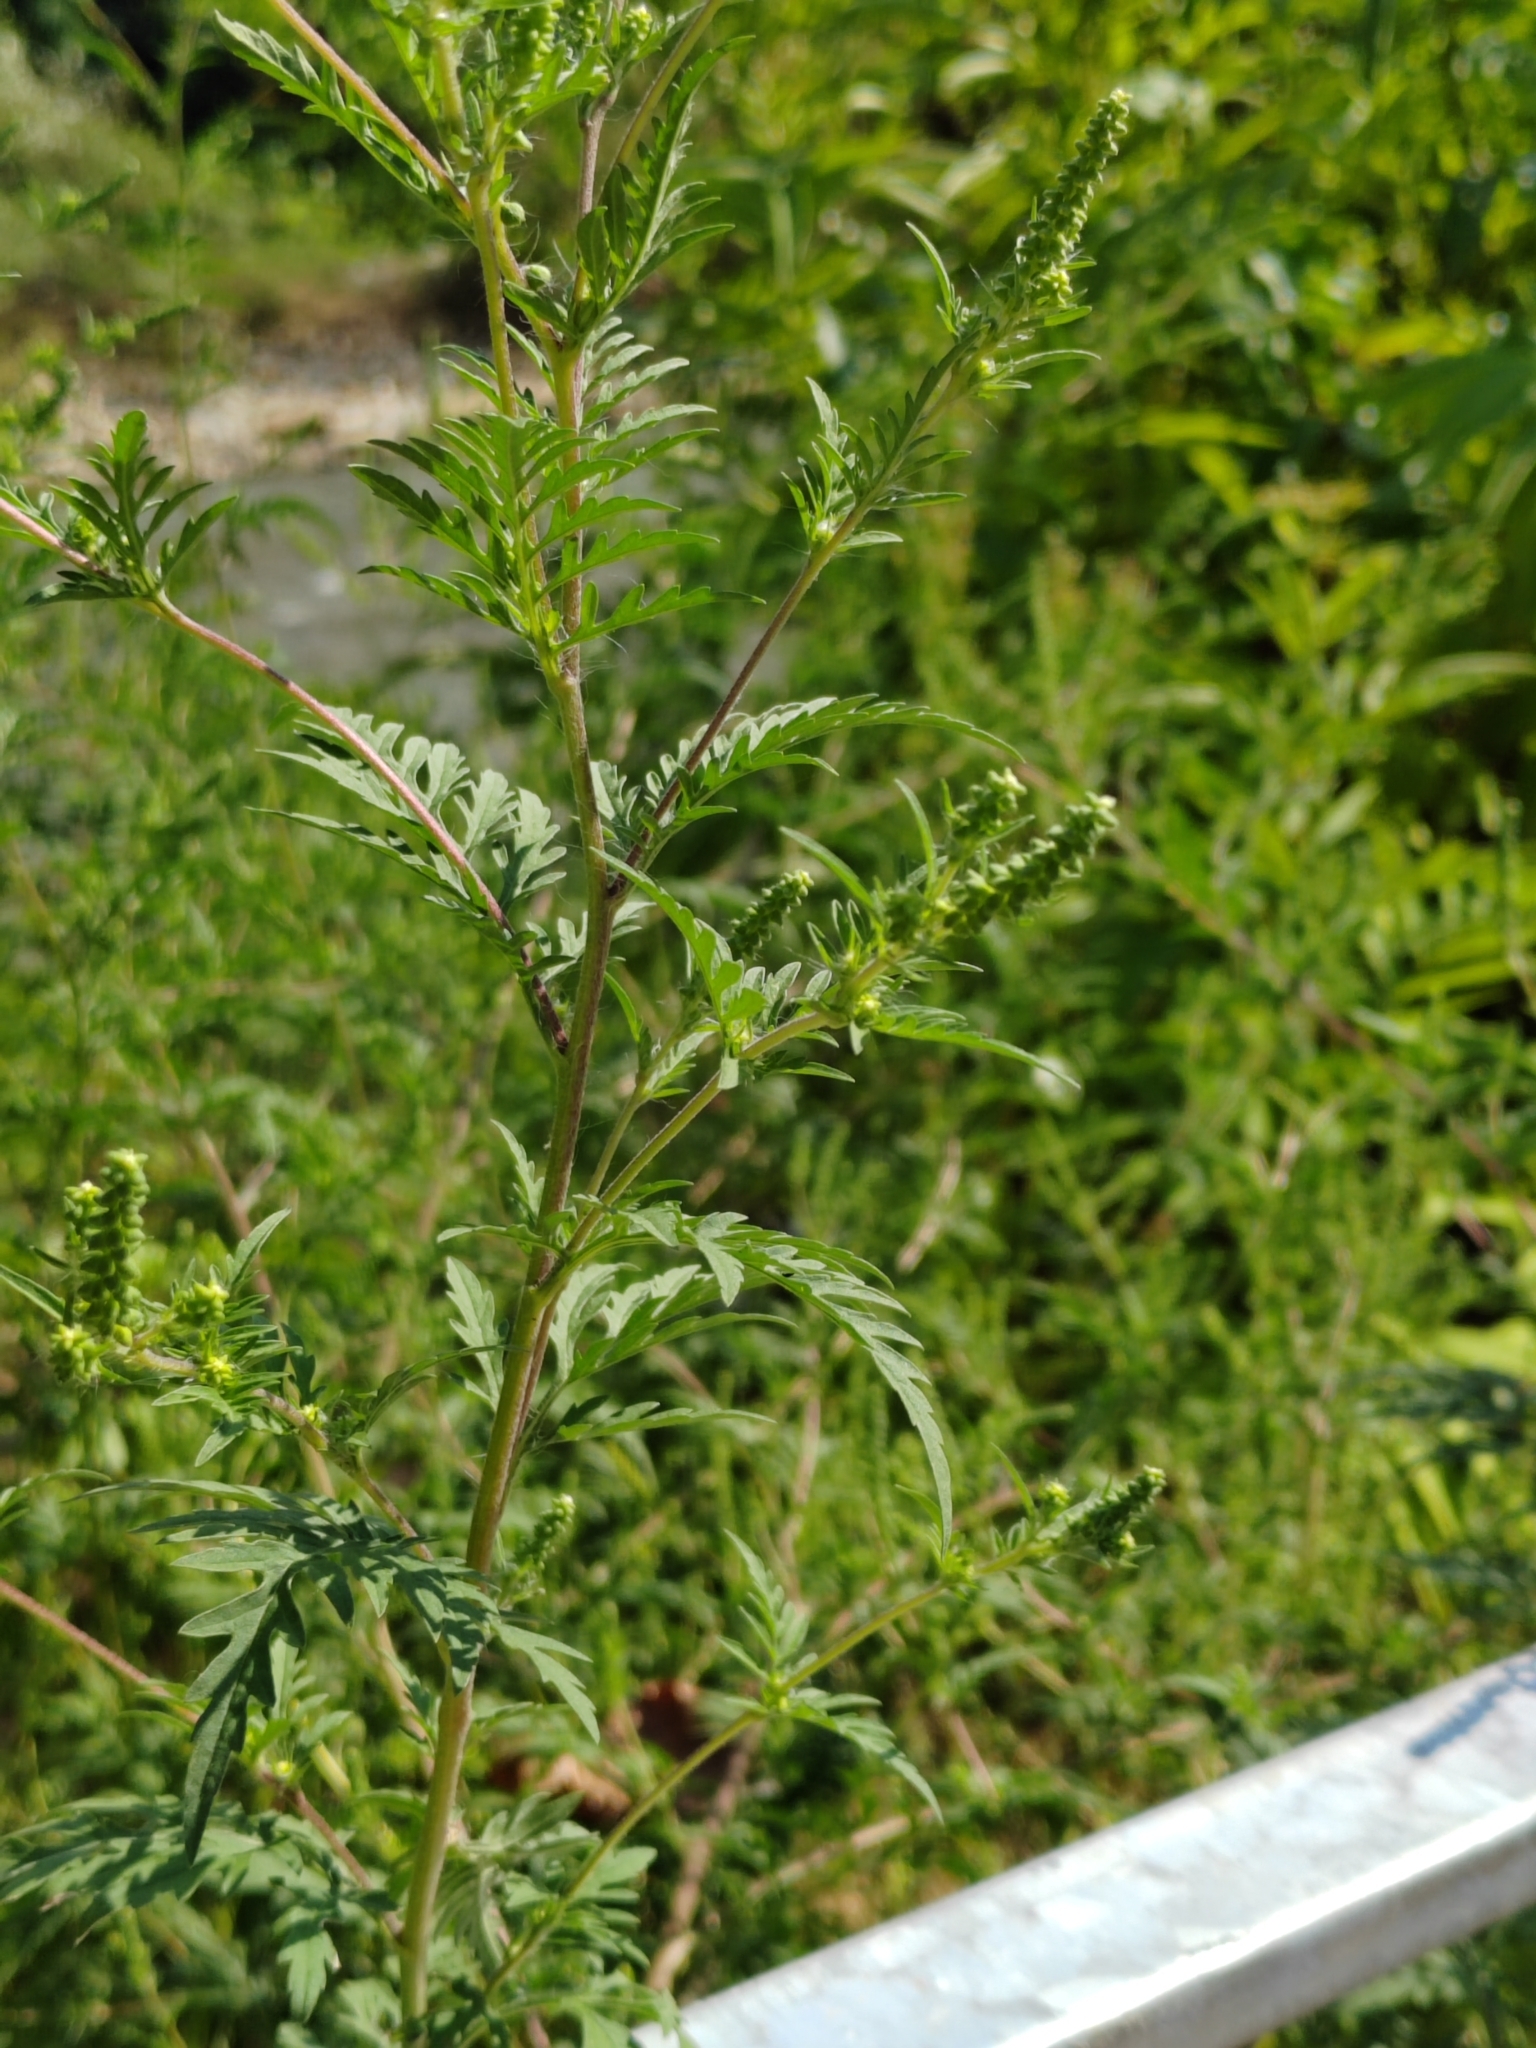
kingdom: Plantae
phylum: Tracheophyta
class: Magnoliopsida
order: Asterales
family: Asteraceae
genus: Ambrosia
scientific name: Ambrosia artemisiifolia
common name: Annual ragweed
